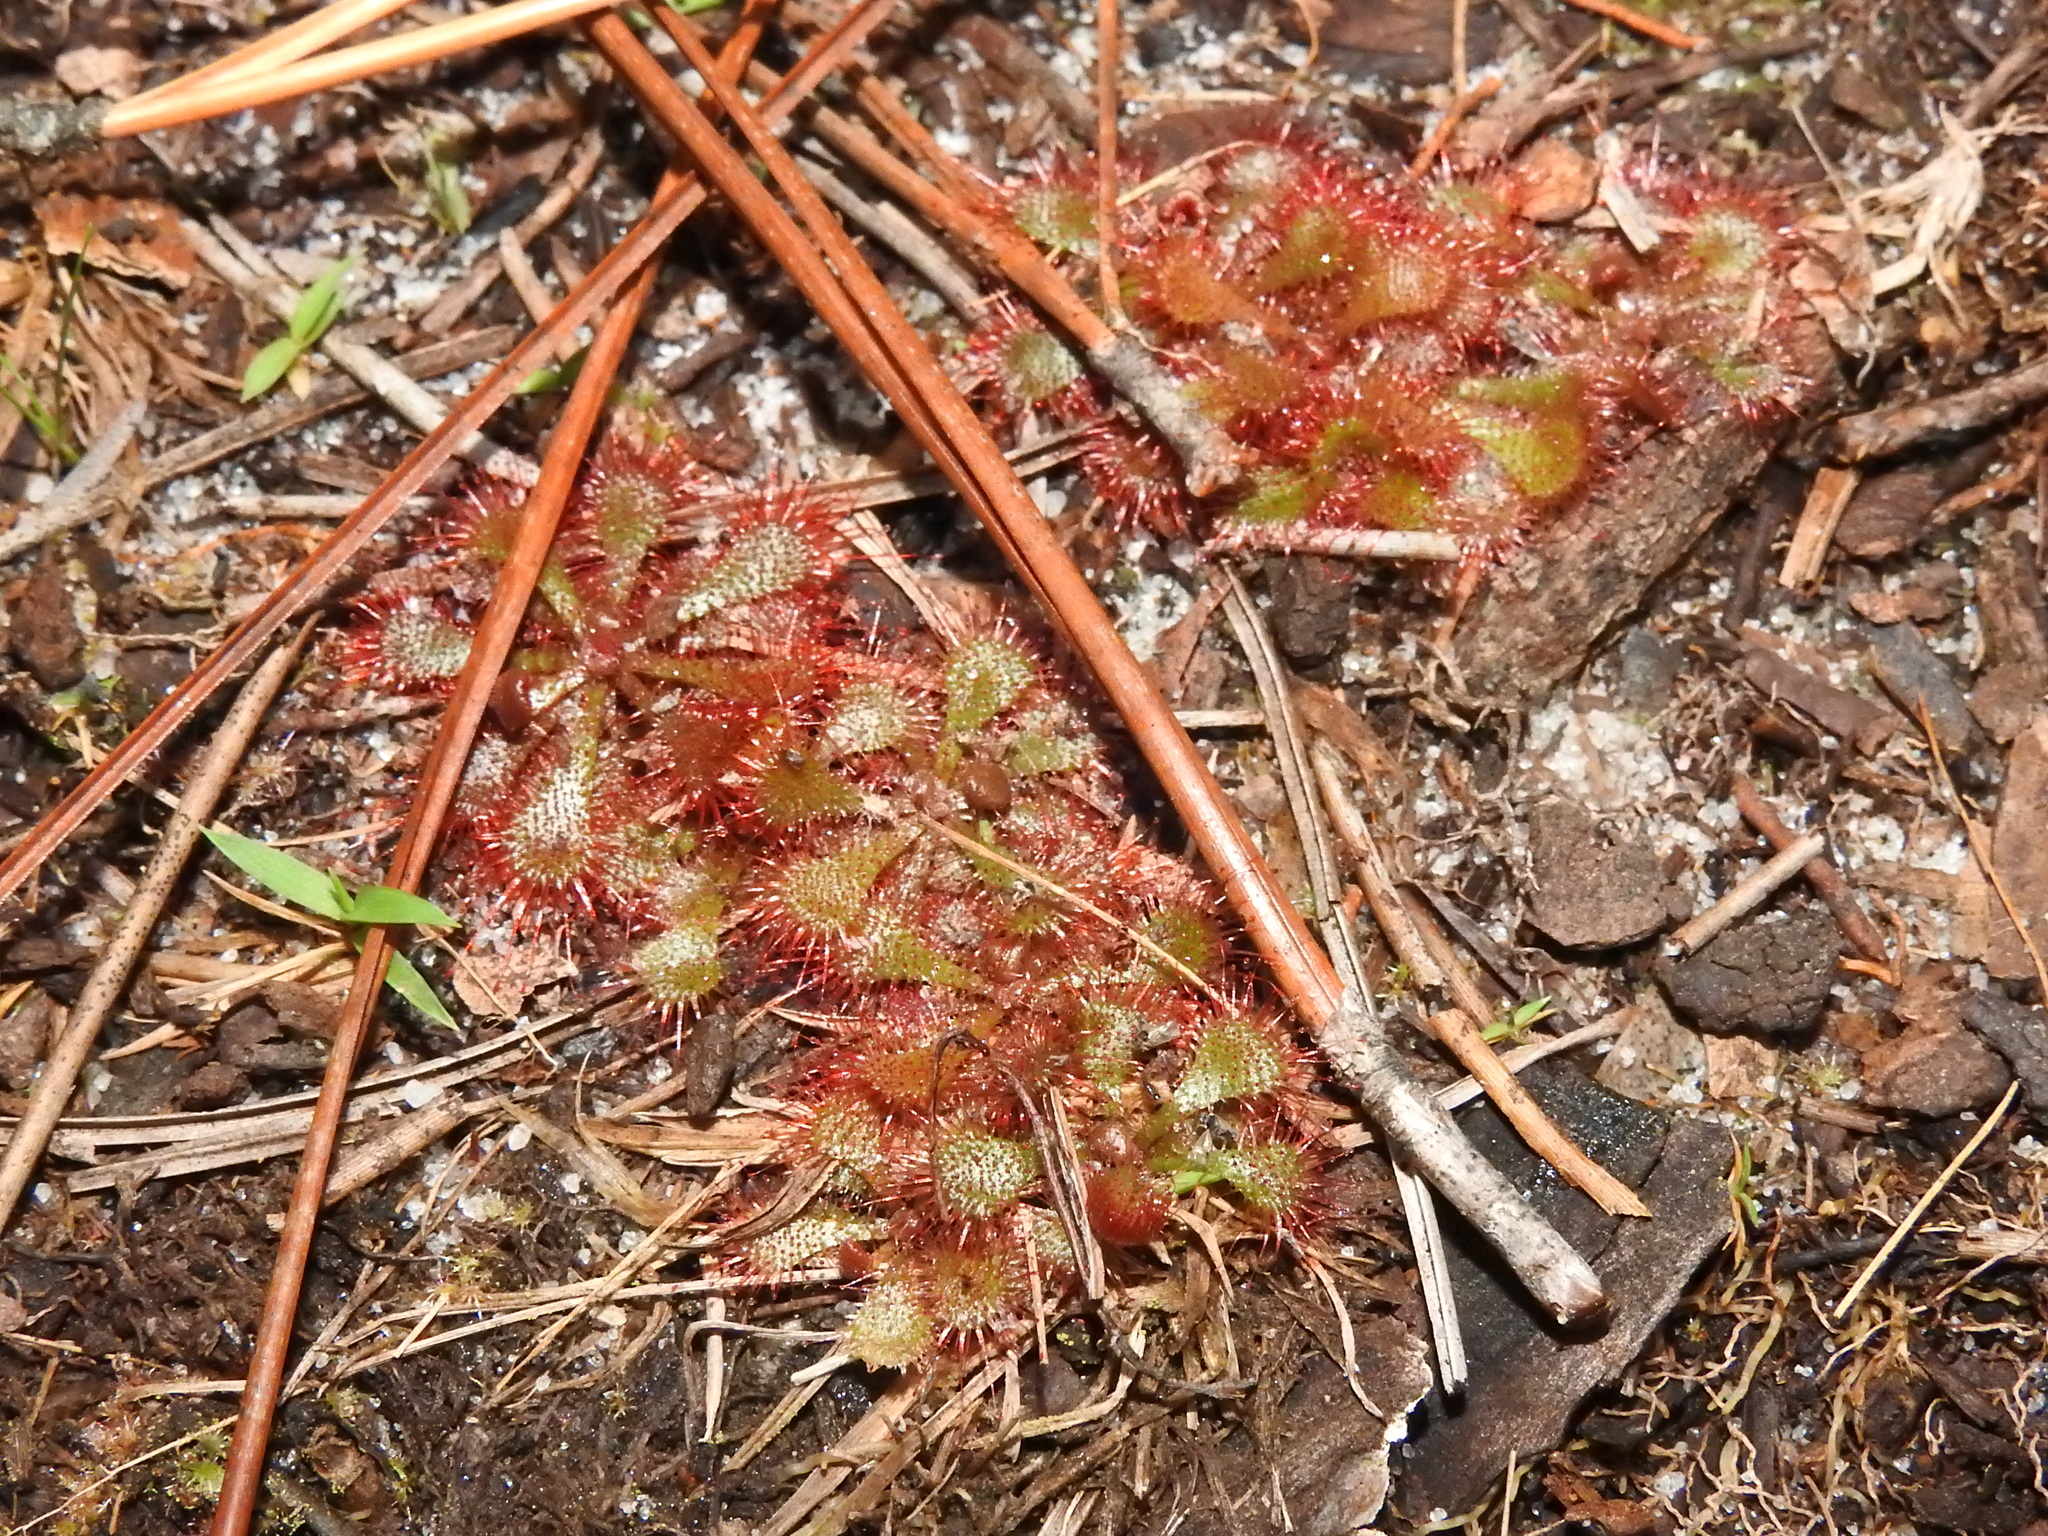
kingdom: Plantae
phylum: Tracheophyta
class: Magnoliopsida
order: Caryophyllales
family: Droseraceae
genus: Drosera
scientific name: Drosera brevifolia
